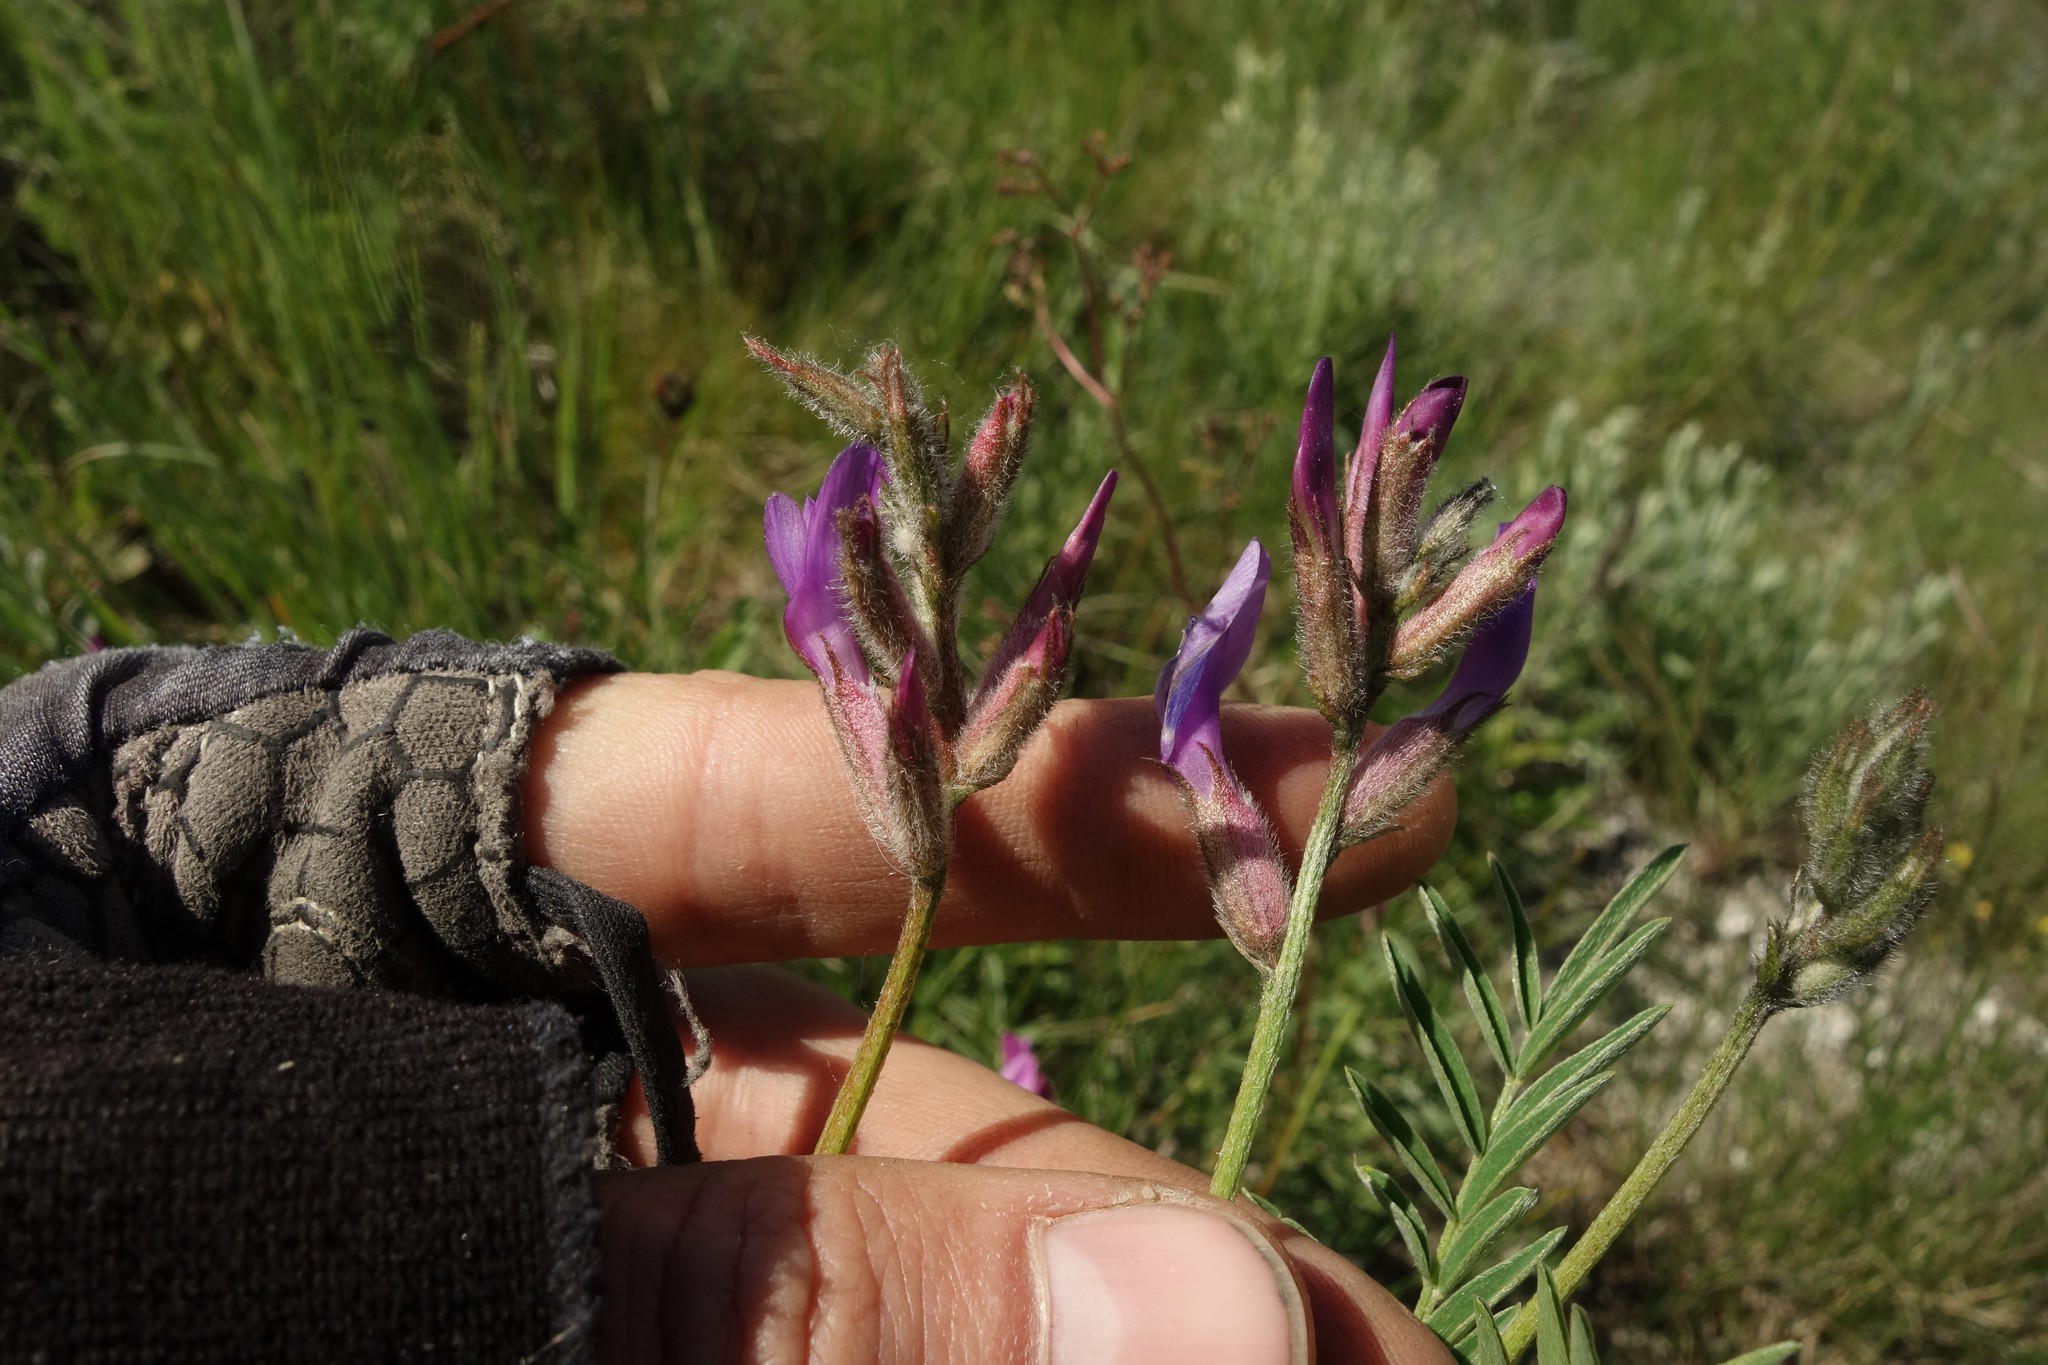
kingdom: Plantae
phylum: Tracheophyta
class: Magnoliopsida
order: Fabales
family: Fabaceae
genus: Astragalus
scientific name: Astragalus brachylobus
